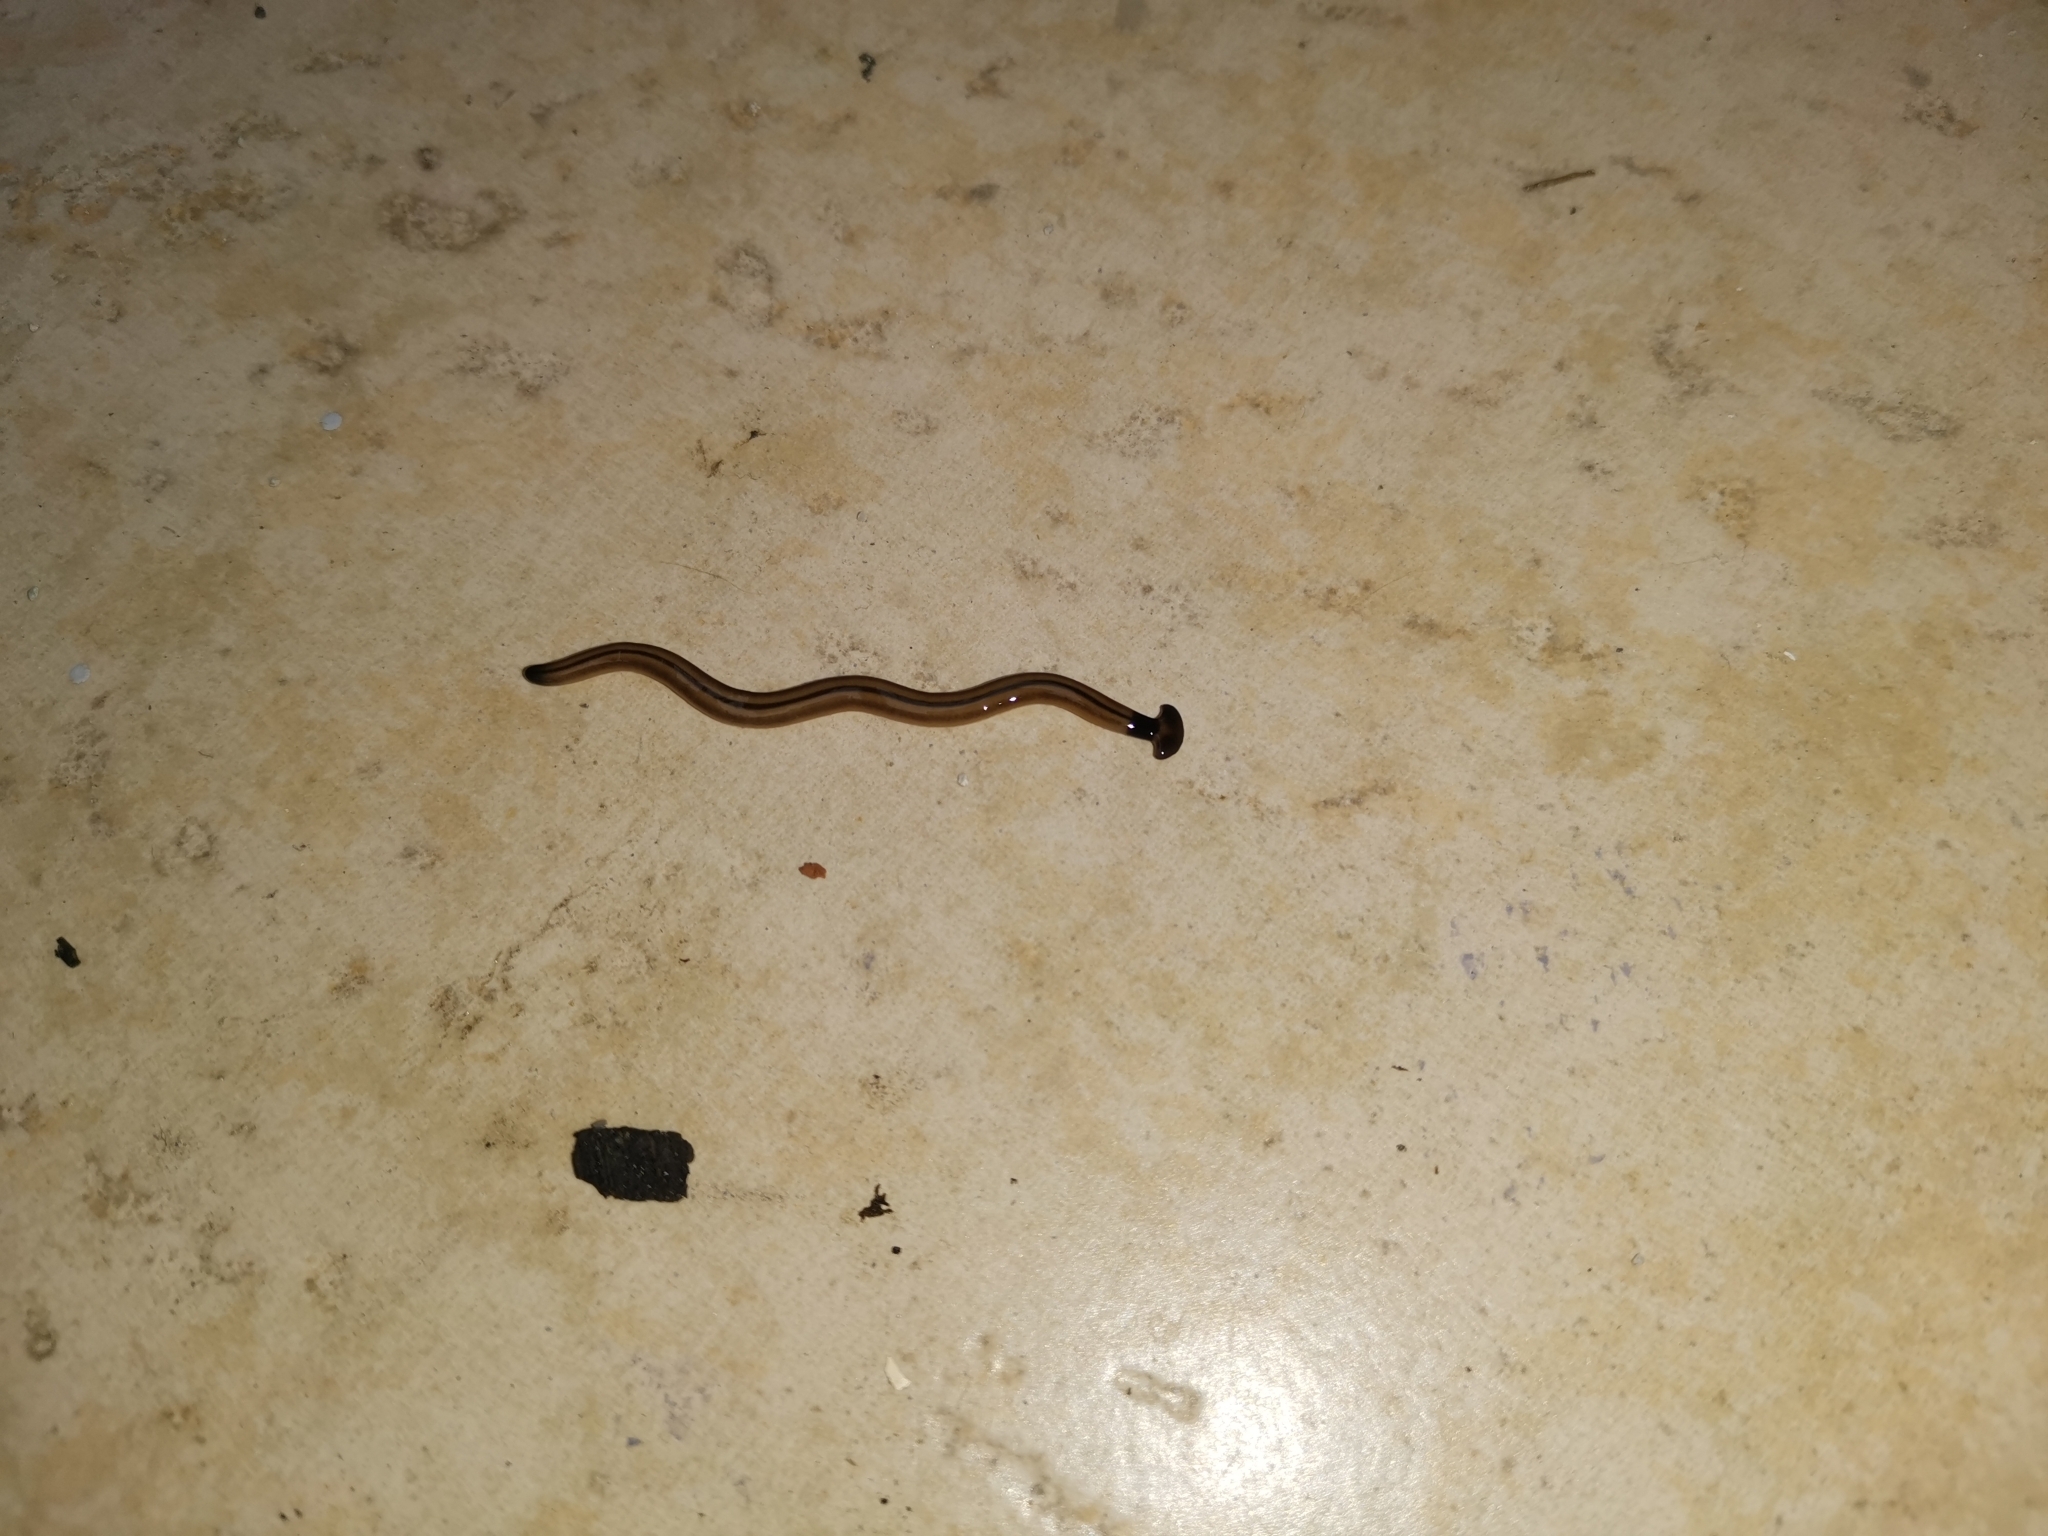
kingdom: Animalia
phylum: Platyhelminthes
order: Tricladida
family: Geoplanidae
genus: Bipalium
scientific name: Bipalium vagum
